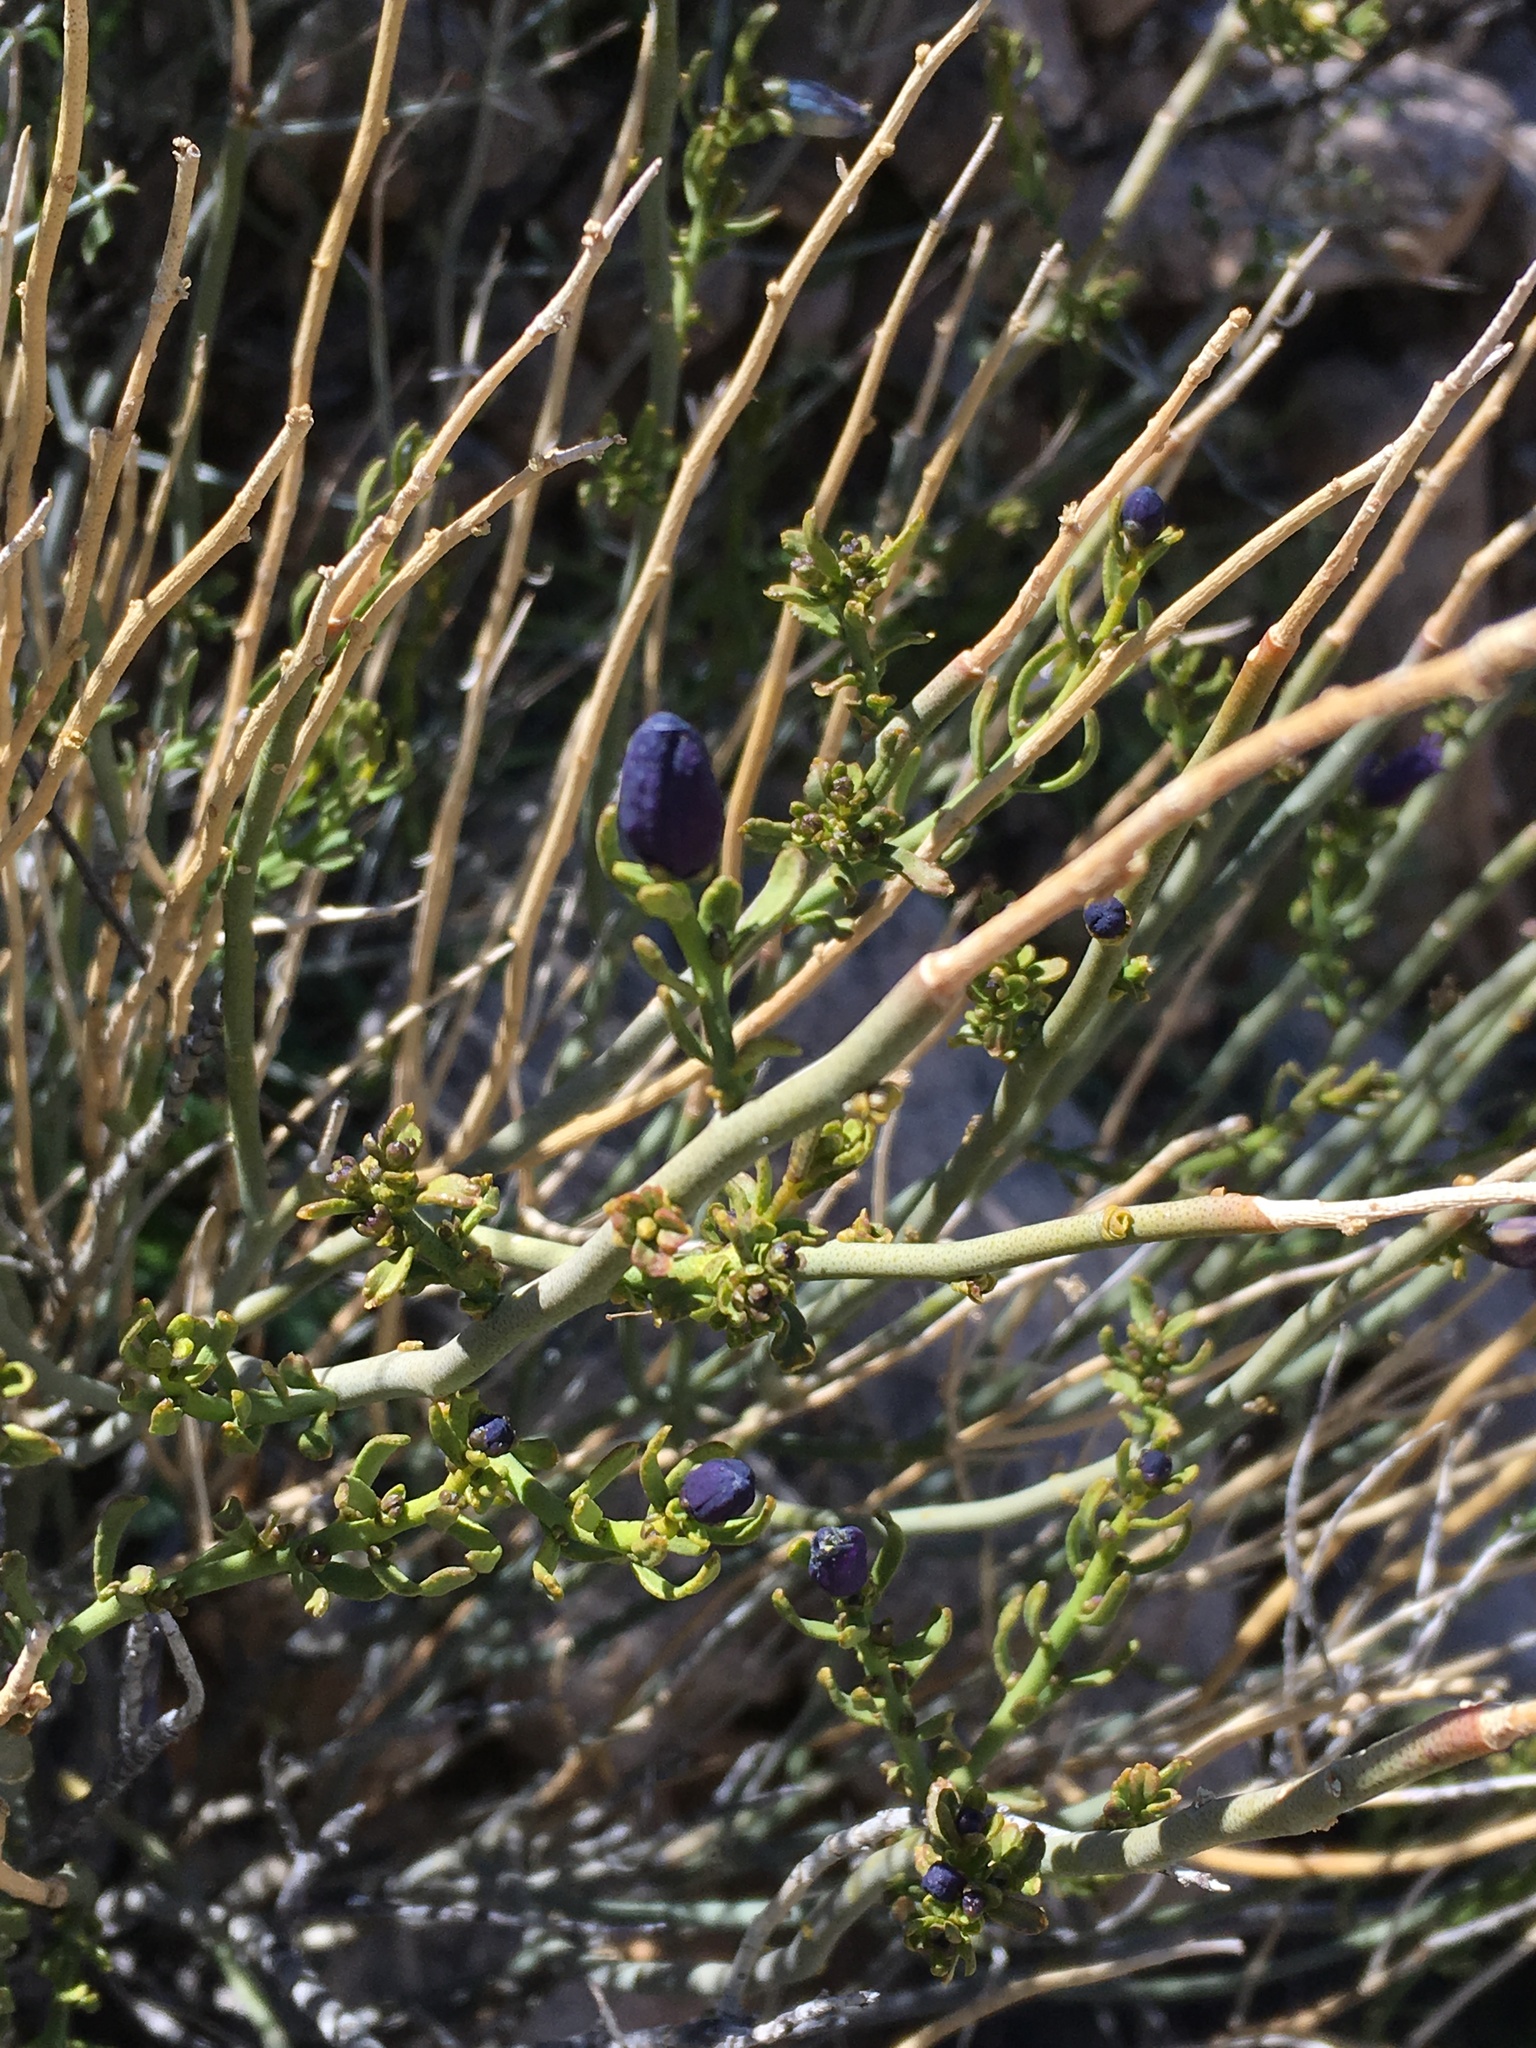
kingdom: Plantae
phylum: Tracheophyta
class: Magnoliopsida
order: Sapindales
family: Rutaceae
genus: Thamnosma
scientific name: Thamnosma montana
